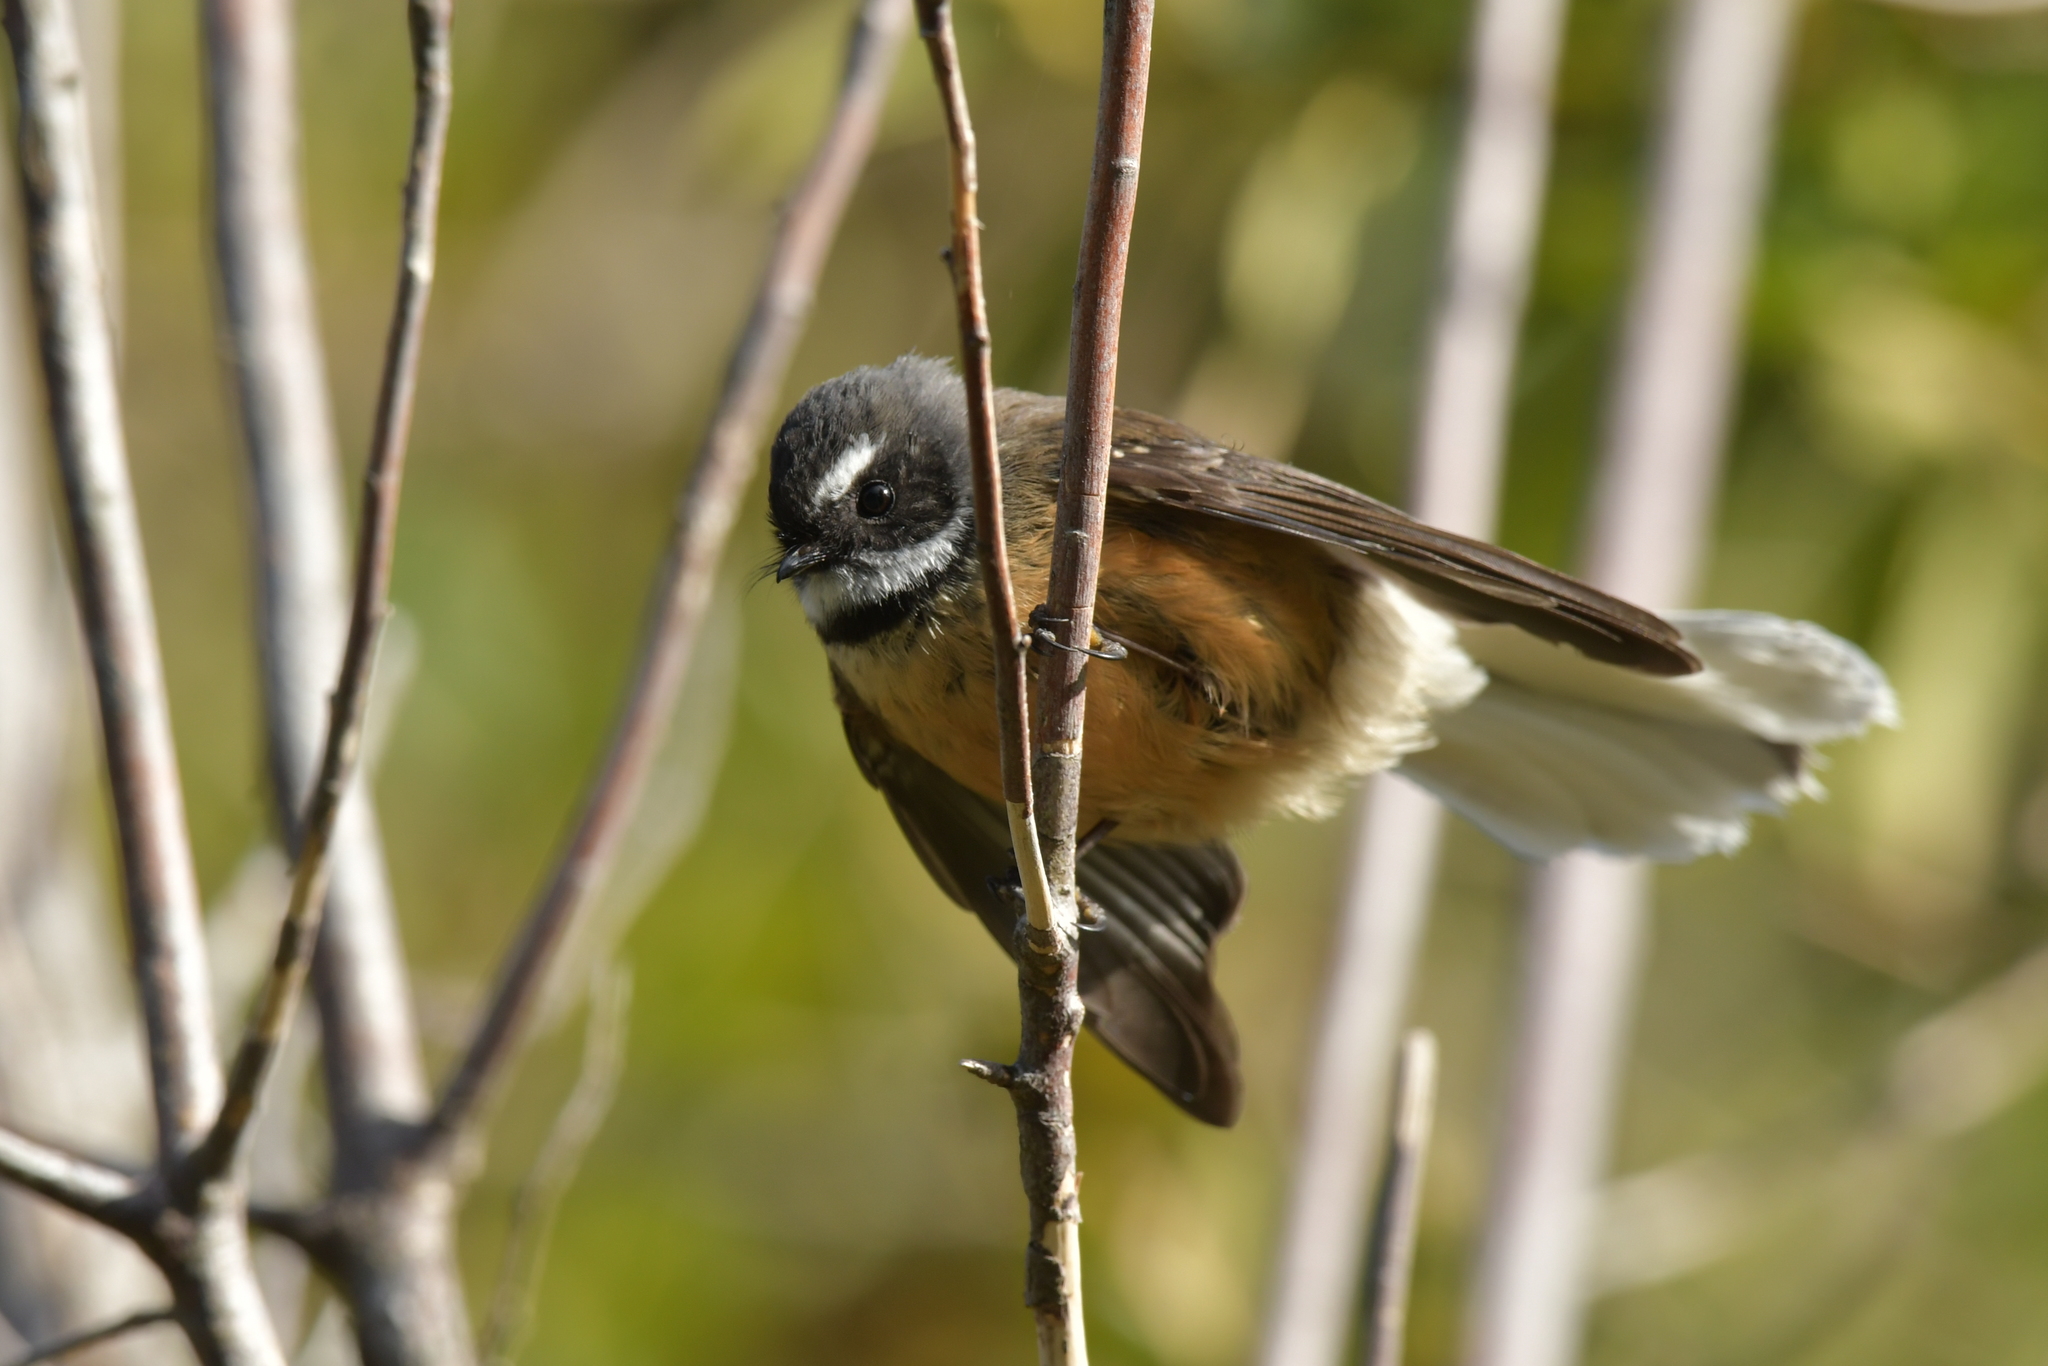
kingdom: Animalia
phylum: Chordata
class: Aves
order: Passeriformes
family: Rhipiduridae
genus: Rhipidura
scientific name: Rhipidura fuliginosa
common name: New zealand fantail
